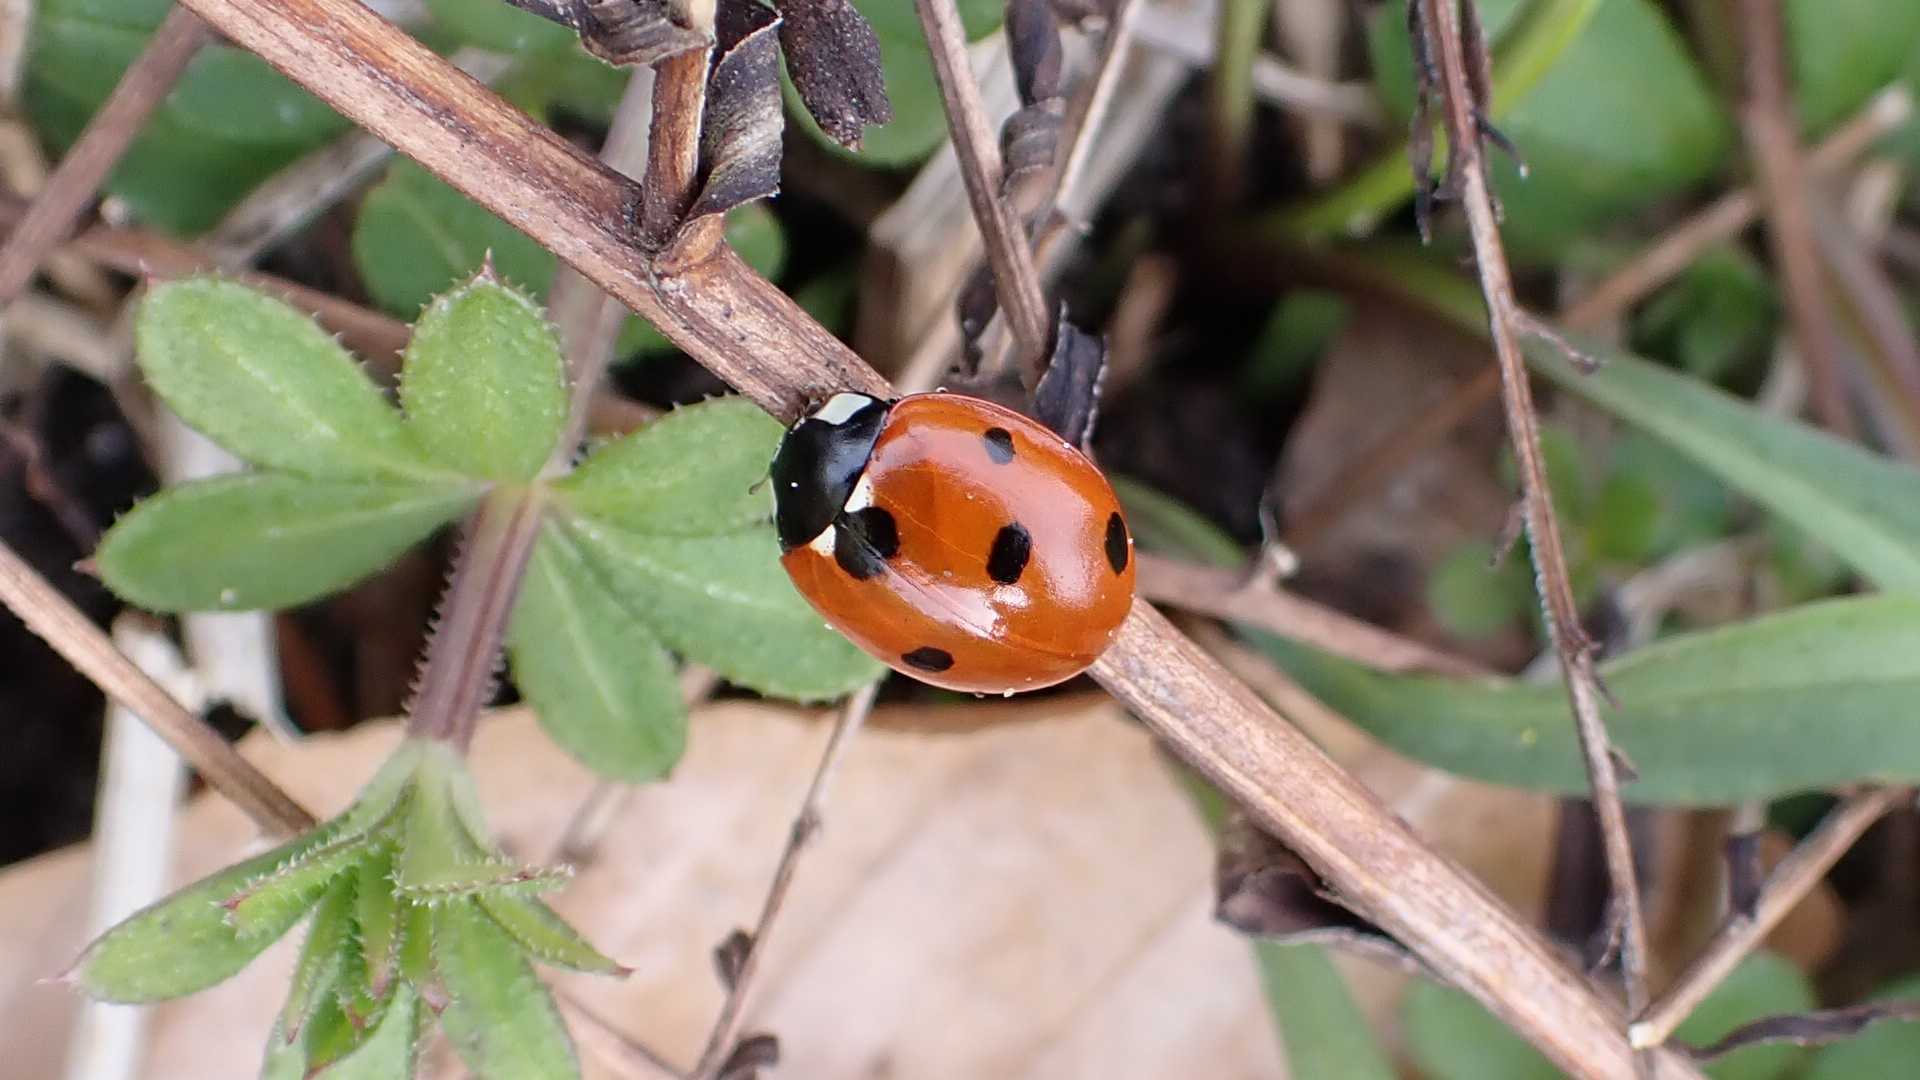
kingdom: Animalia
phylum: Arthropoda
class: Insecta
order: Coleoptera
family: Coccinellidae
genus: Coccinella
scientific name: Coccinella septempunctata
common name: Sevenspotted lady beetle
